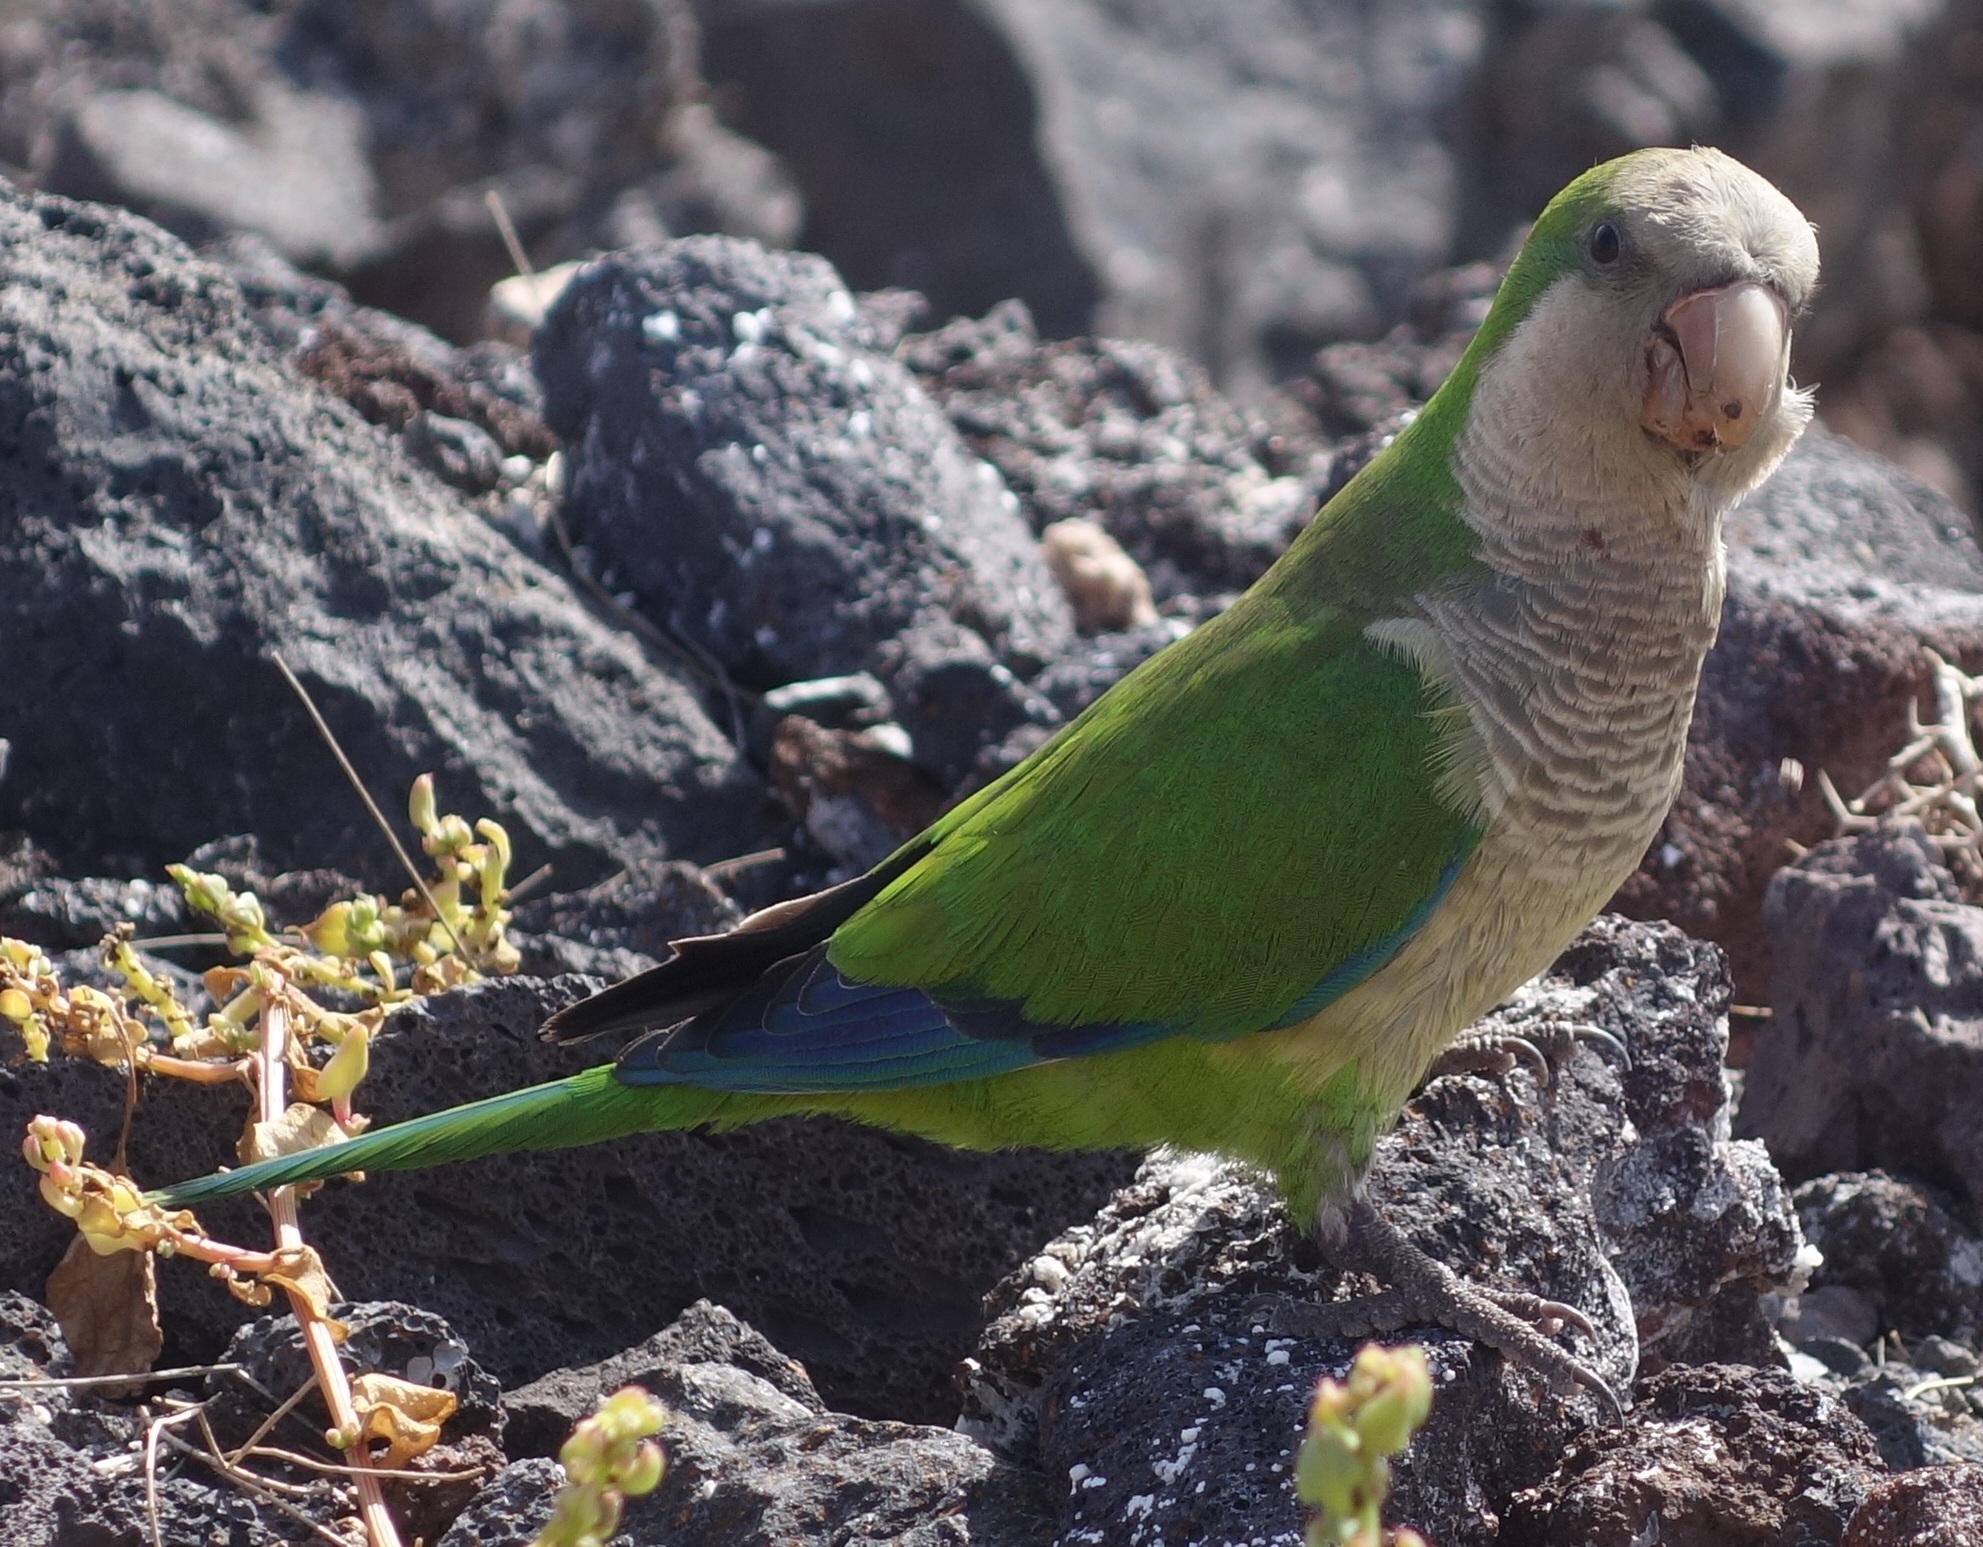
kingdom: Animalia
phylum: Chordata
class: Aves
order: Psittaciformes
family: Psittacidae
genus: Myiopsitta
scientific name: Myiopsitta monachus
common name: Monk parakeet
